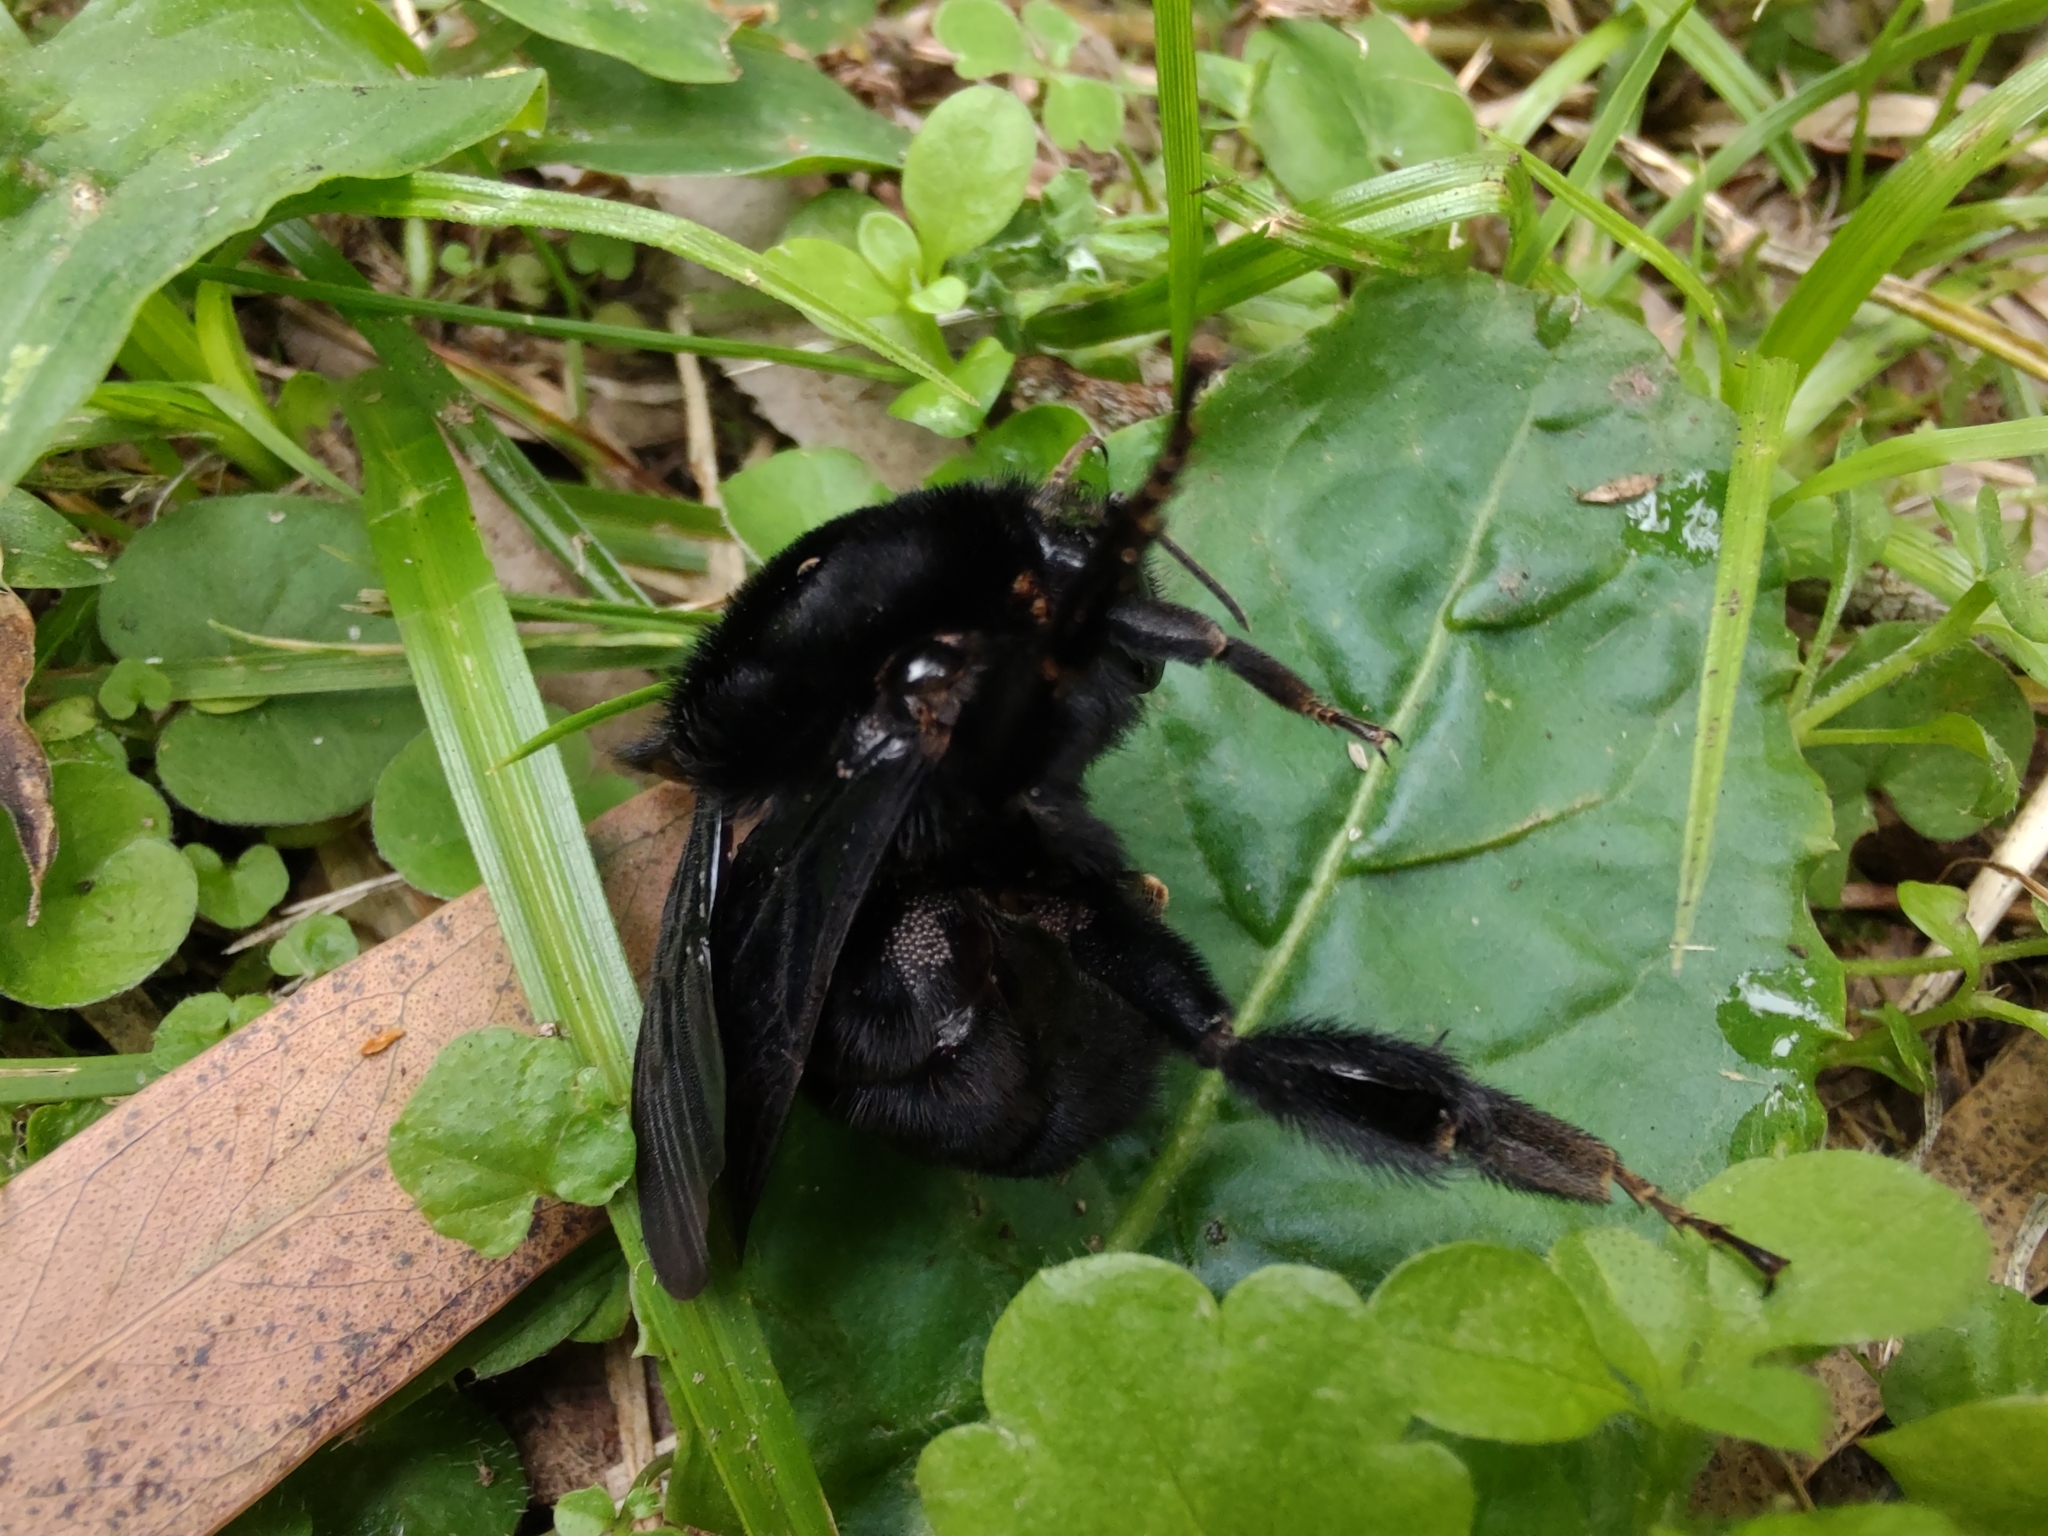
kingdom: Animalia
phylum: Arthropoda
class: Insecta
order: Hymenoptera
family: Apidae
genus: Bombus
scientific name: Bombus pauloensis
